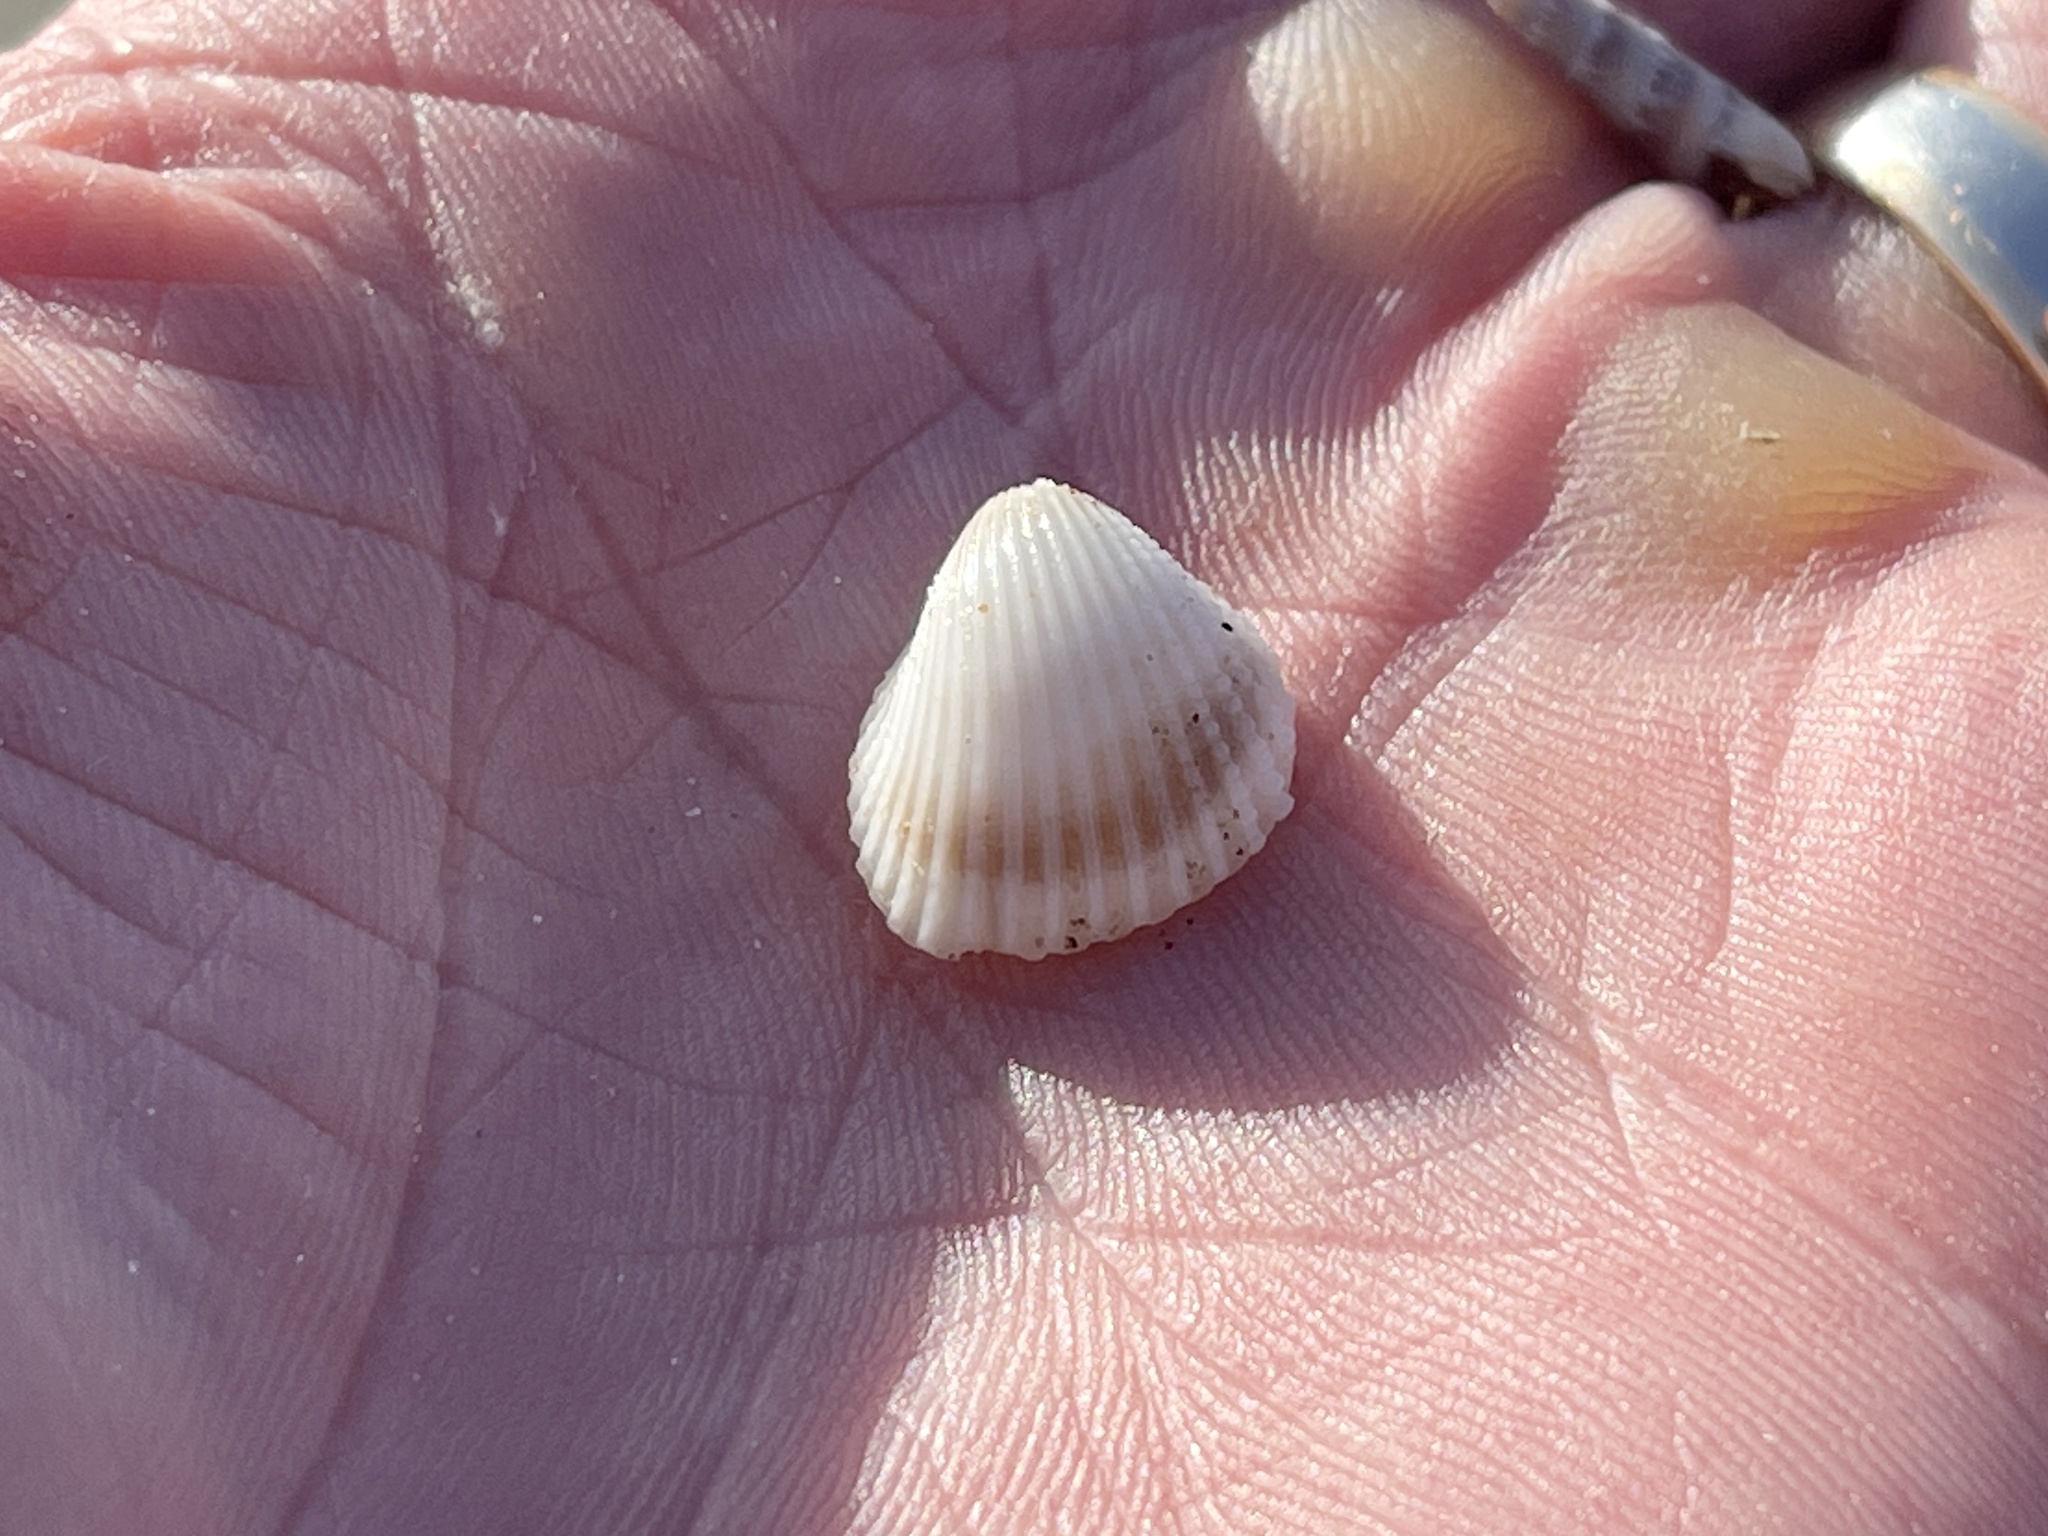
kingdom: Animalia
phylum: Mollusca
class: Bivalvia
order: Arcida
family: Arcidae
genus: Anadara
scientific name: Anadara chemnitzii
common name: Chemnitz's triangular ark
